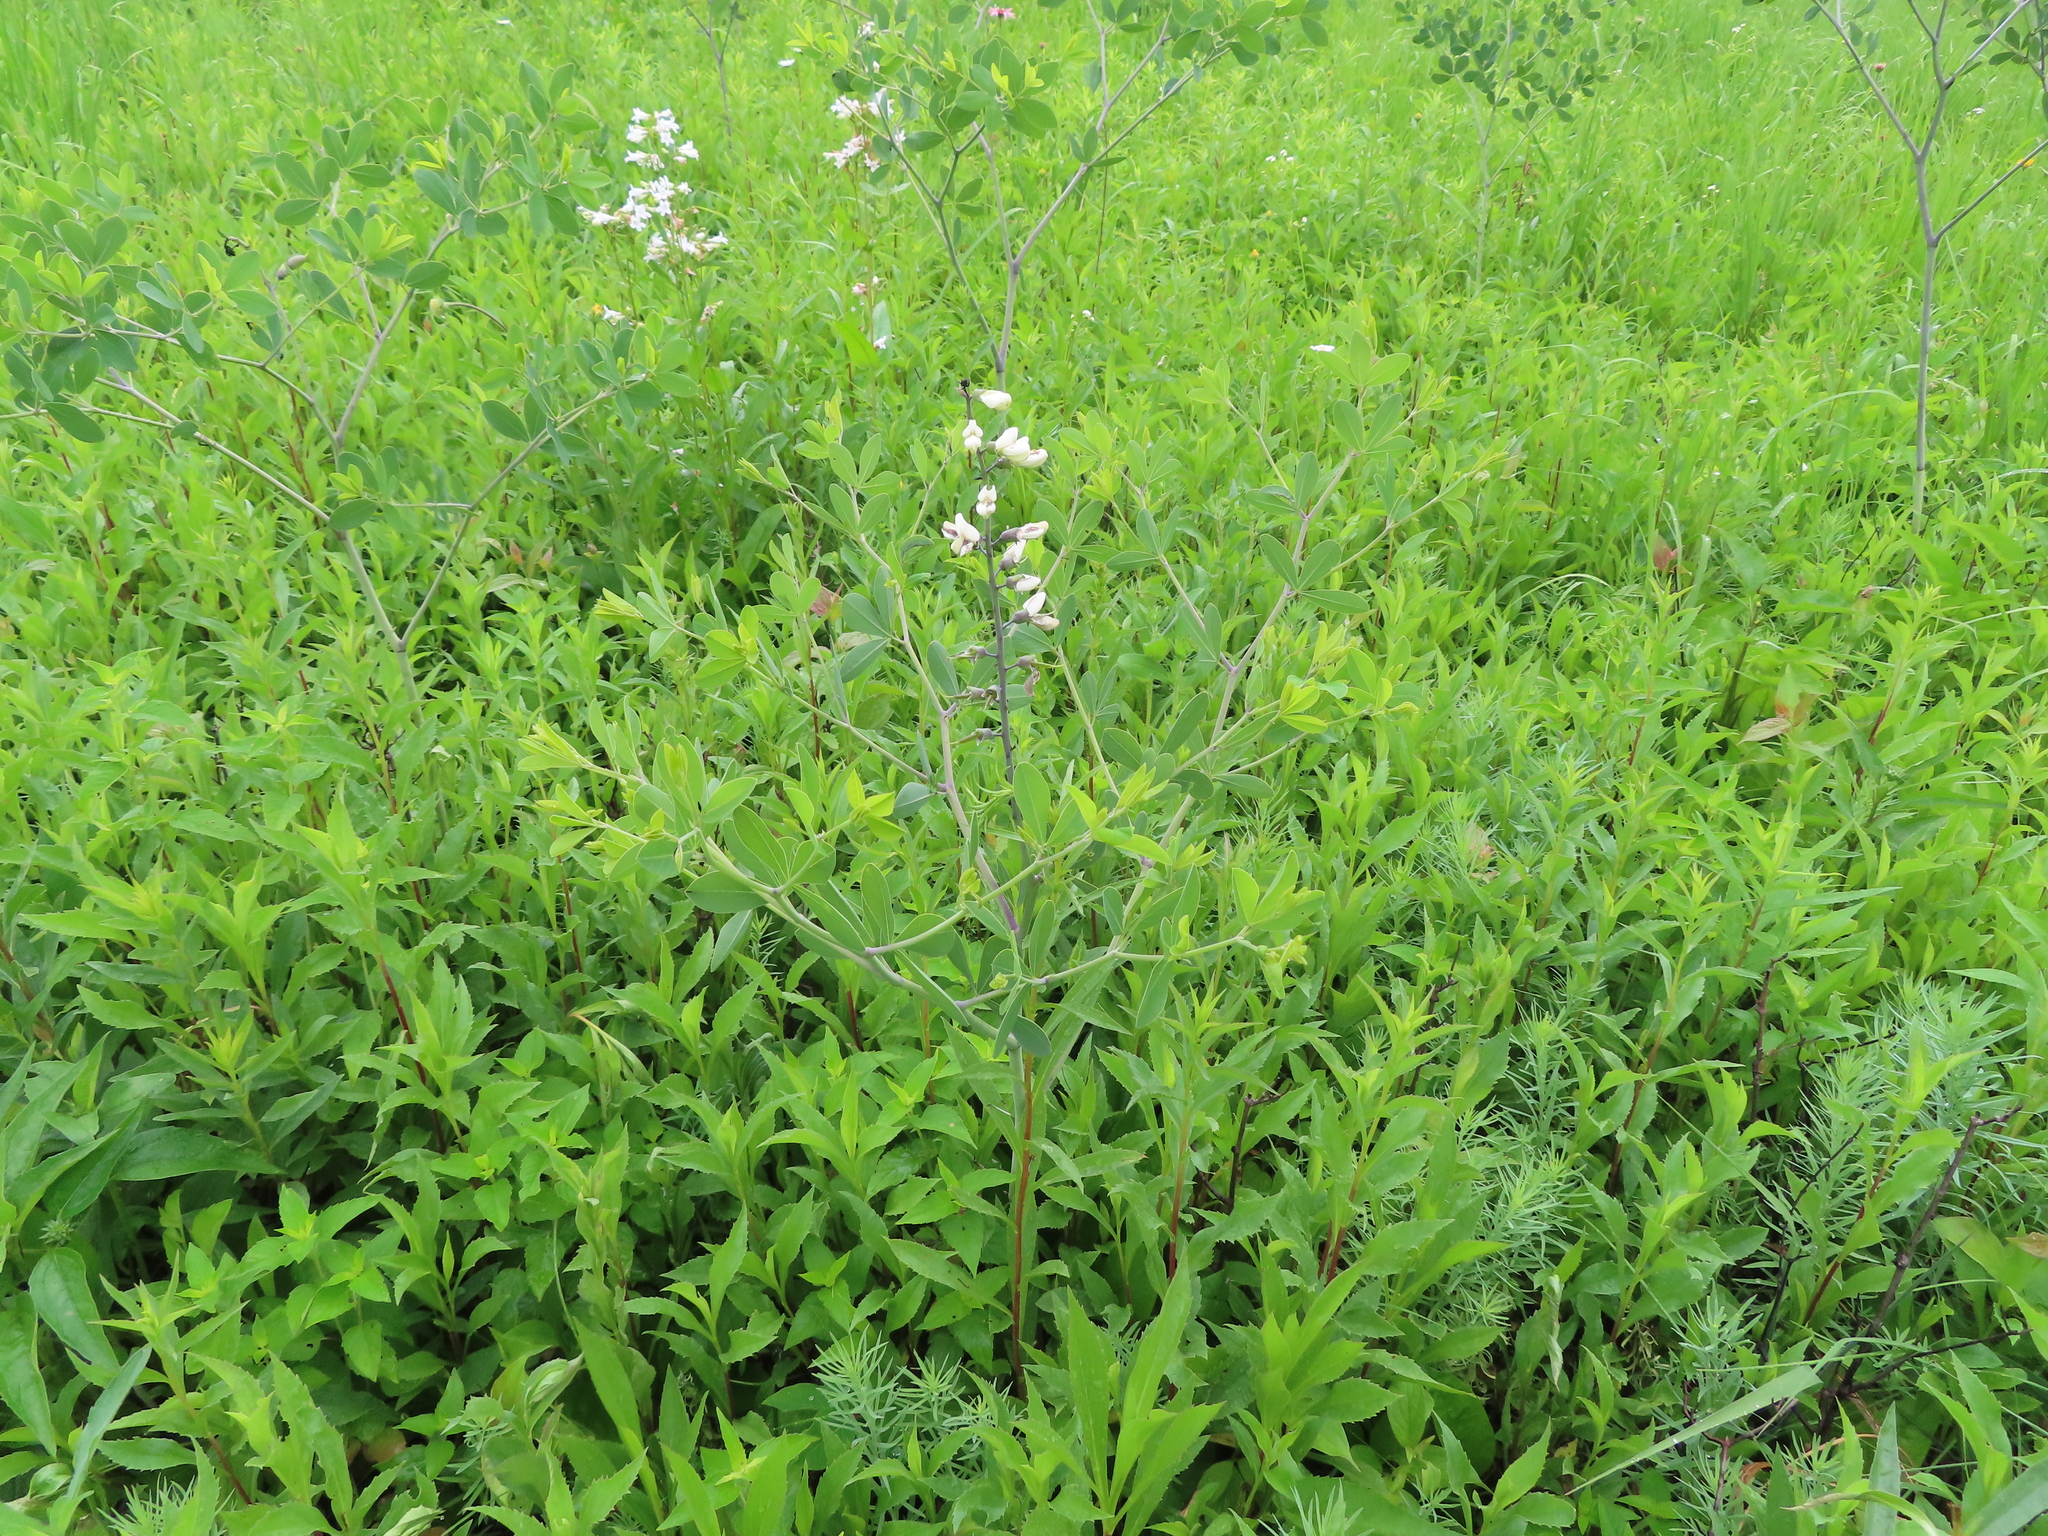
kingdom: Plantae
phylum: Tracheophyta
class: Magnoliopsida
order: Fabales
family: Fabaceae
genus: Baptisia
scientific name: Baptisia alba
